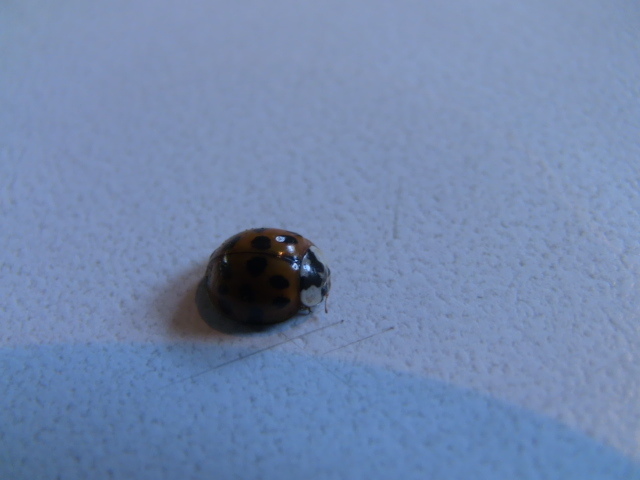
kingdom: Animalia
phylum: Arthropoda
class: Insecta
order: Coleoptera
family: Coccinellidae
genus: Harmonia
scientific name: Harmonia axyridis
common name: Harlequin ladybird
